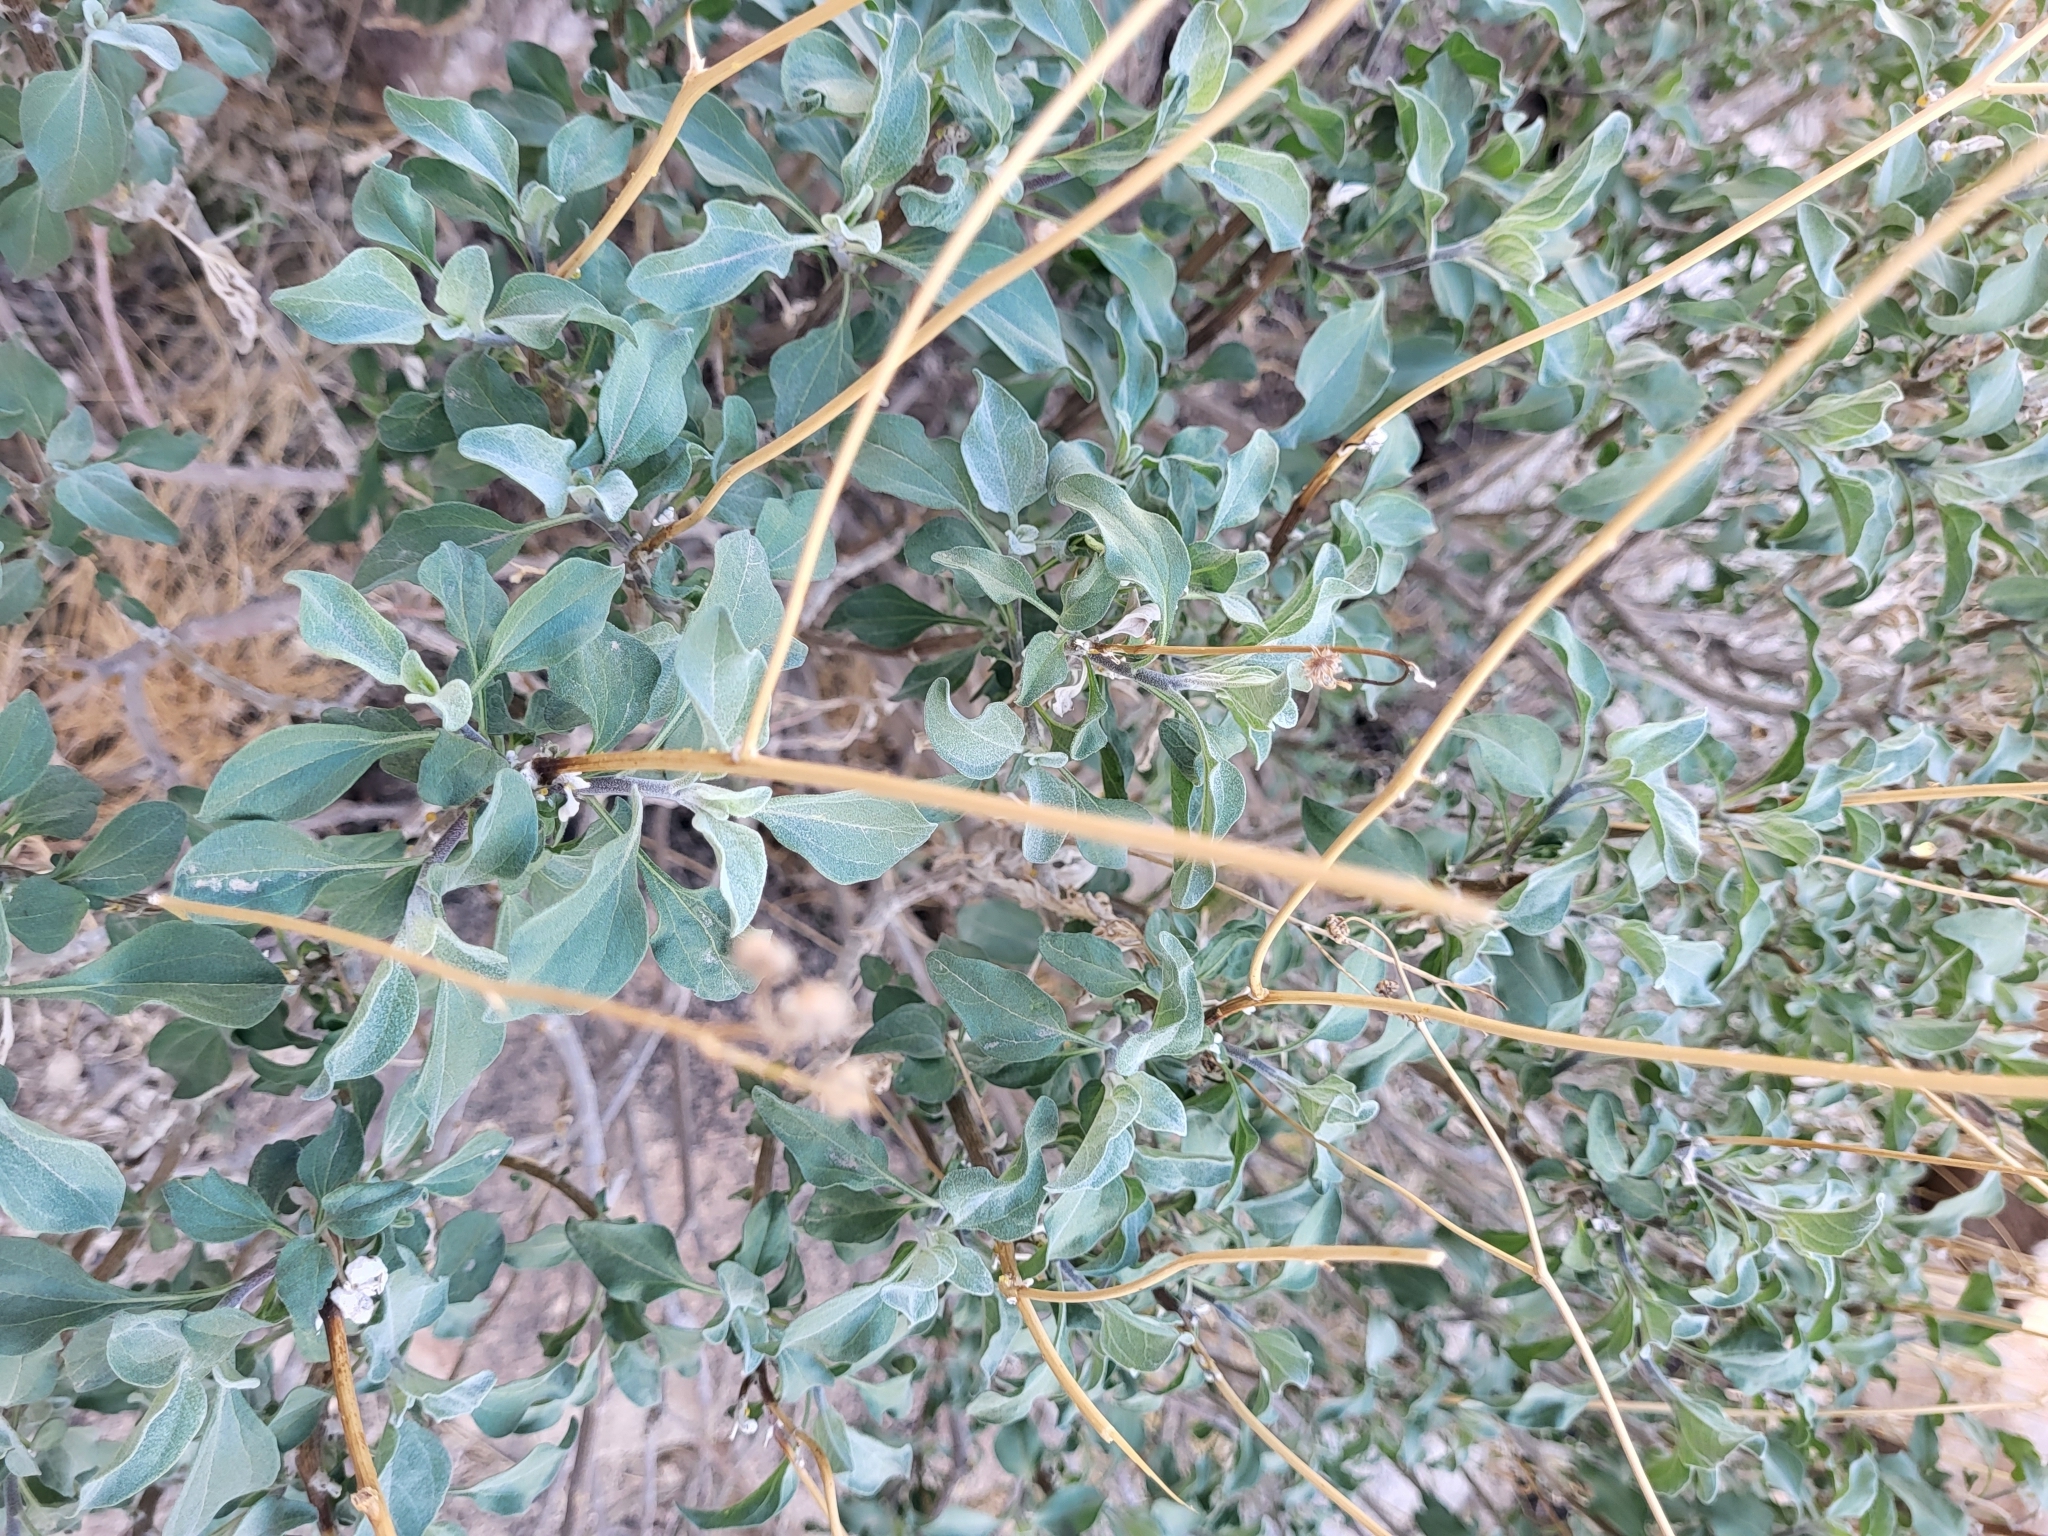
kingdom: Plantae
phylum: Tracheophyta
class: Magnoliopsida
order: Asterales
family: Asteraceae
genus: Encelia
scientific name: Encelia farinosa
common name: Brittlebush
